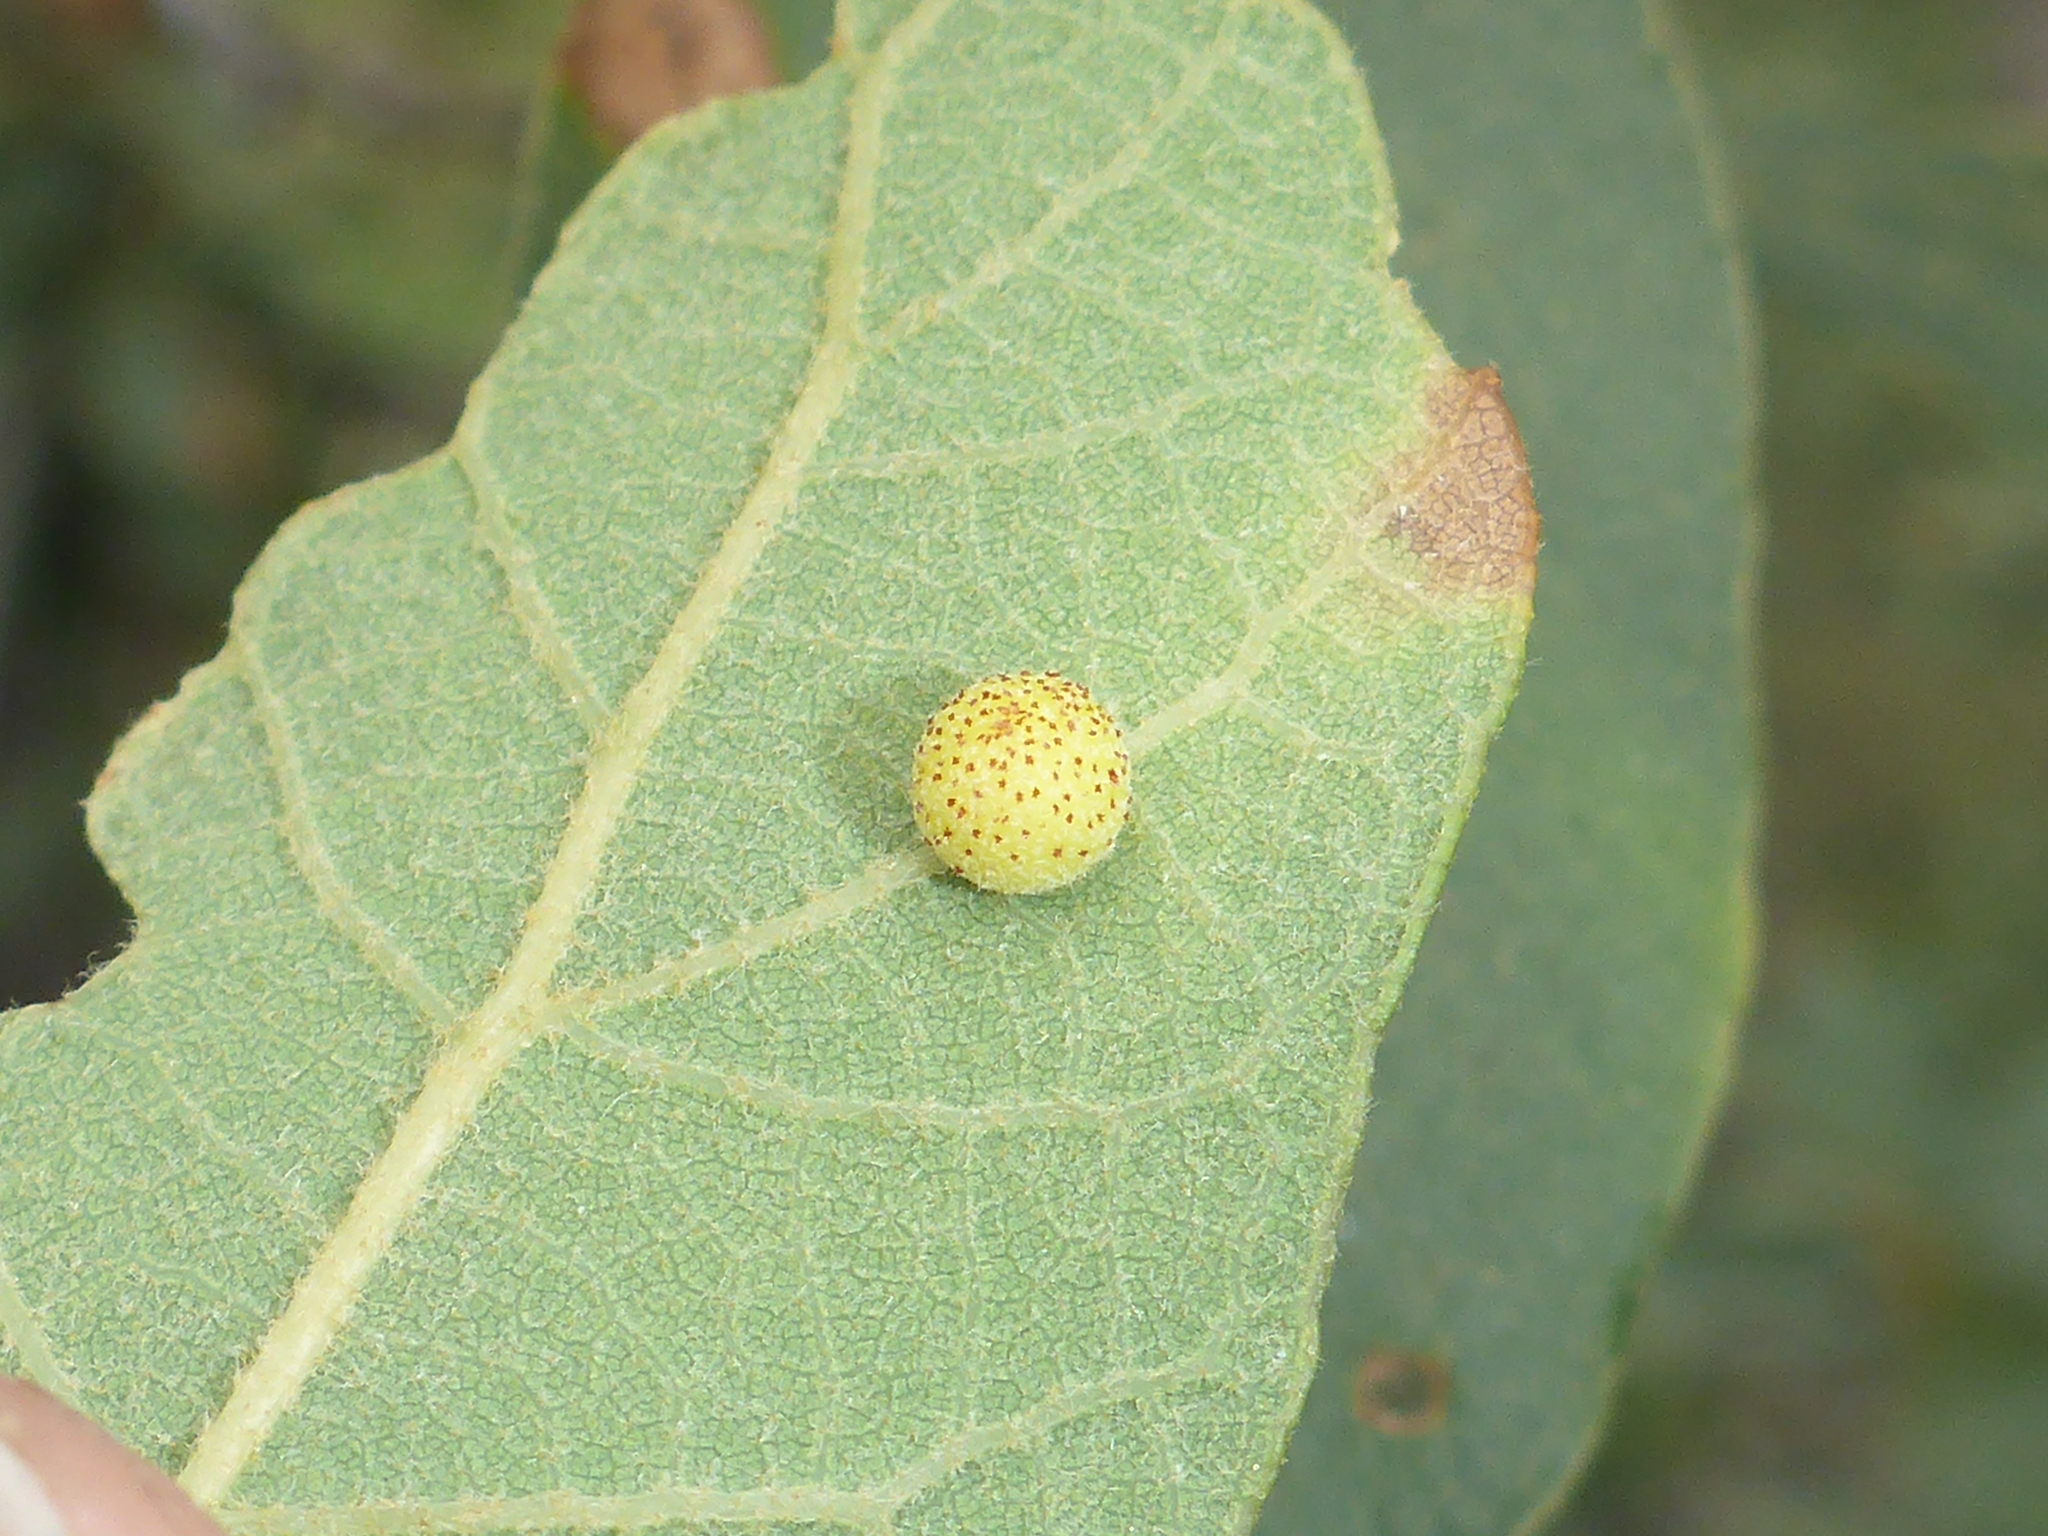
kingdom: Animalia
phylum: Arthropoda
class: Insecta
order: Hymenoptera
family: Cynipidae
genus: Cynips
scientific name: Cynips Antron tomkursari
